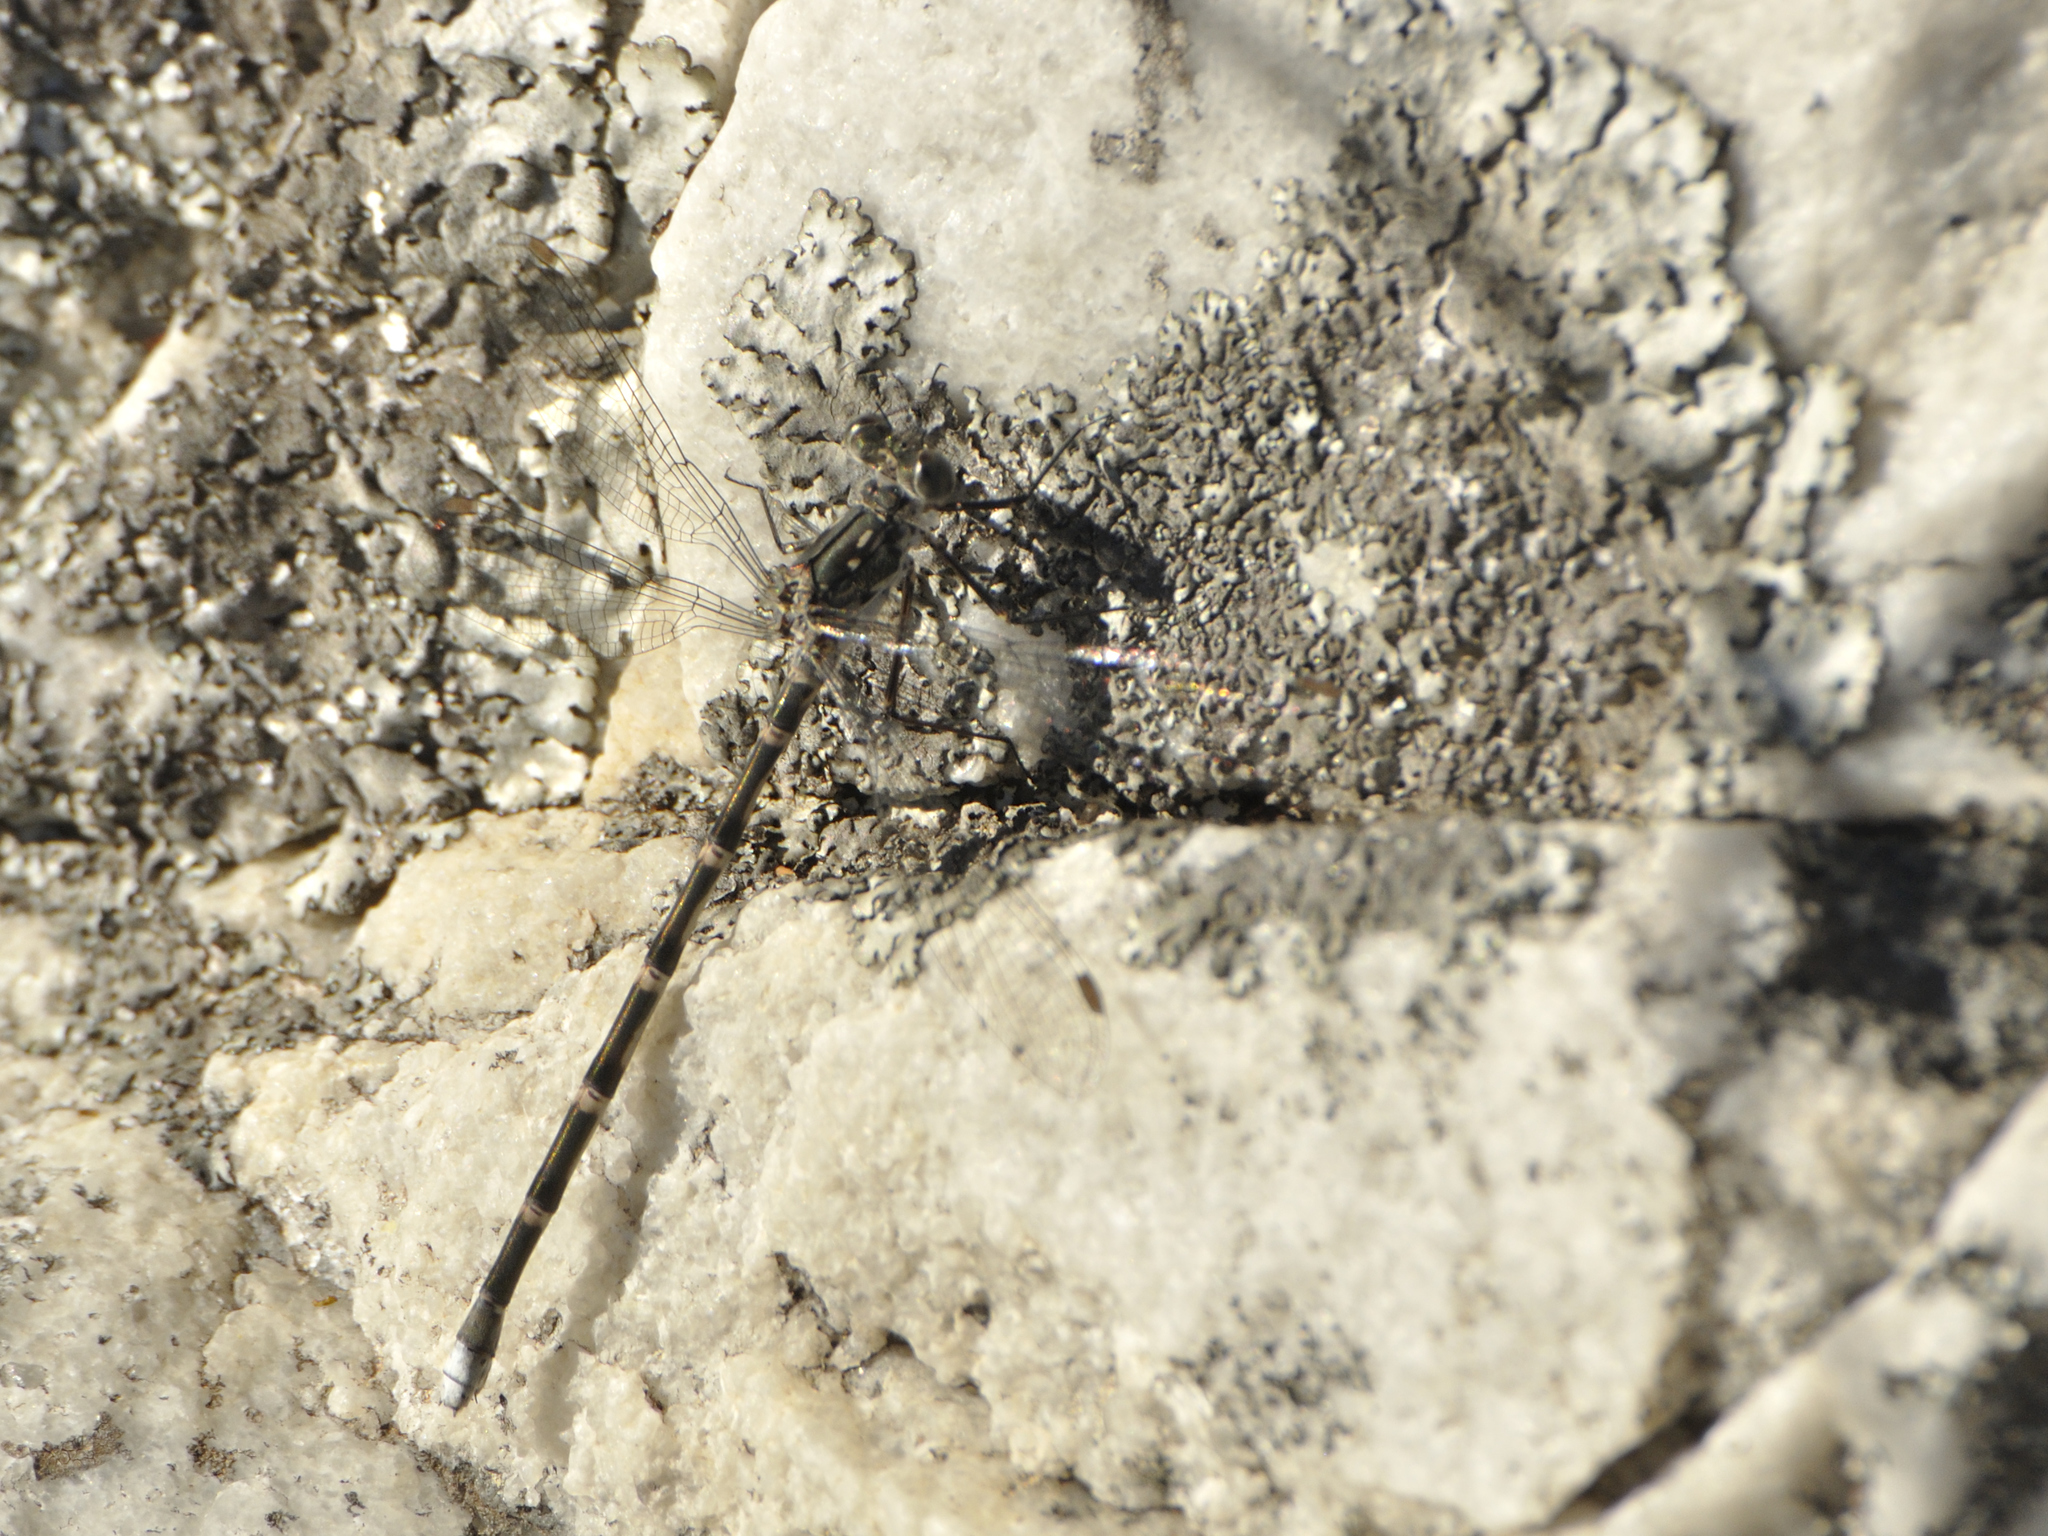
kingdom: Animalia
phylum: Arthropoda
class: Insecta
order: Odonata
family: Synlestidae
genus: Ecchlorolestes
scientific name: Ecchlorolestes peringueyi
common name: Marbled malachite
